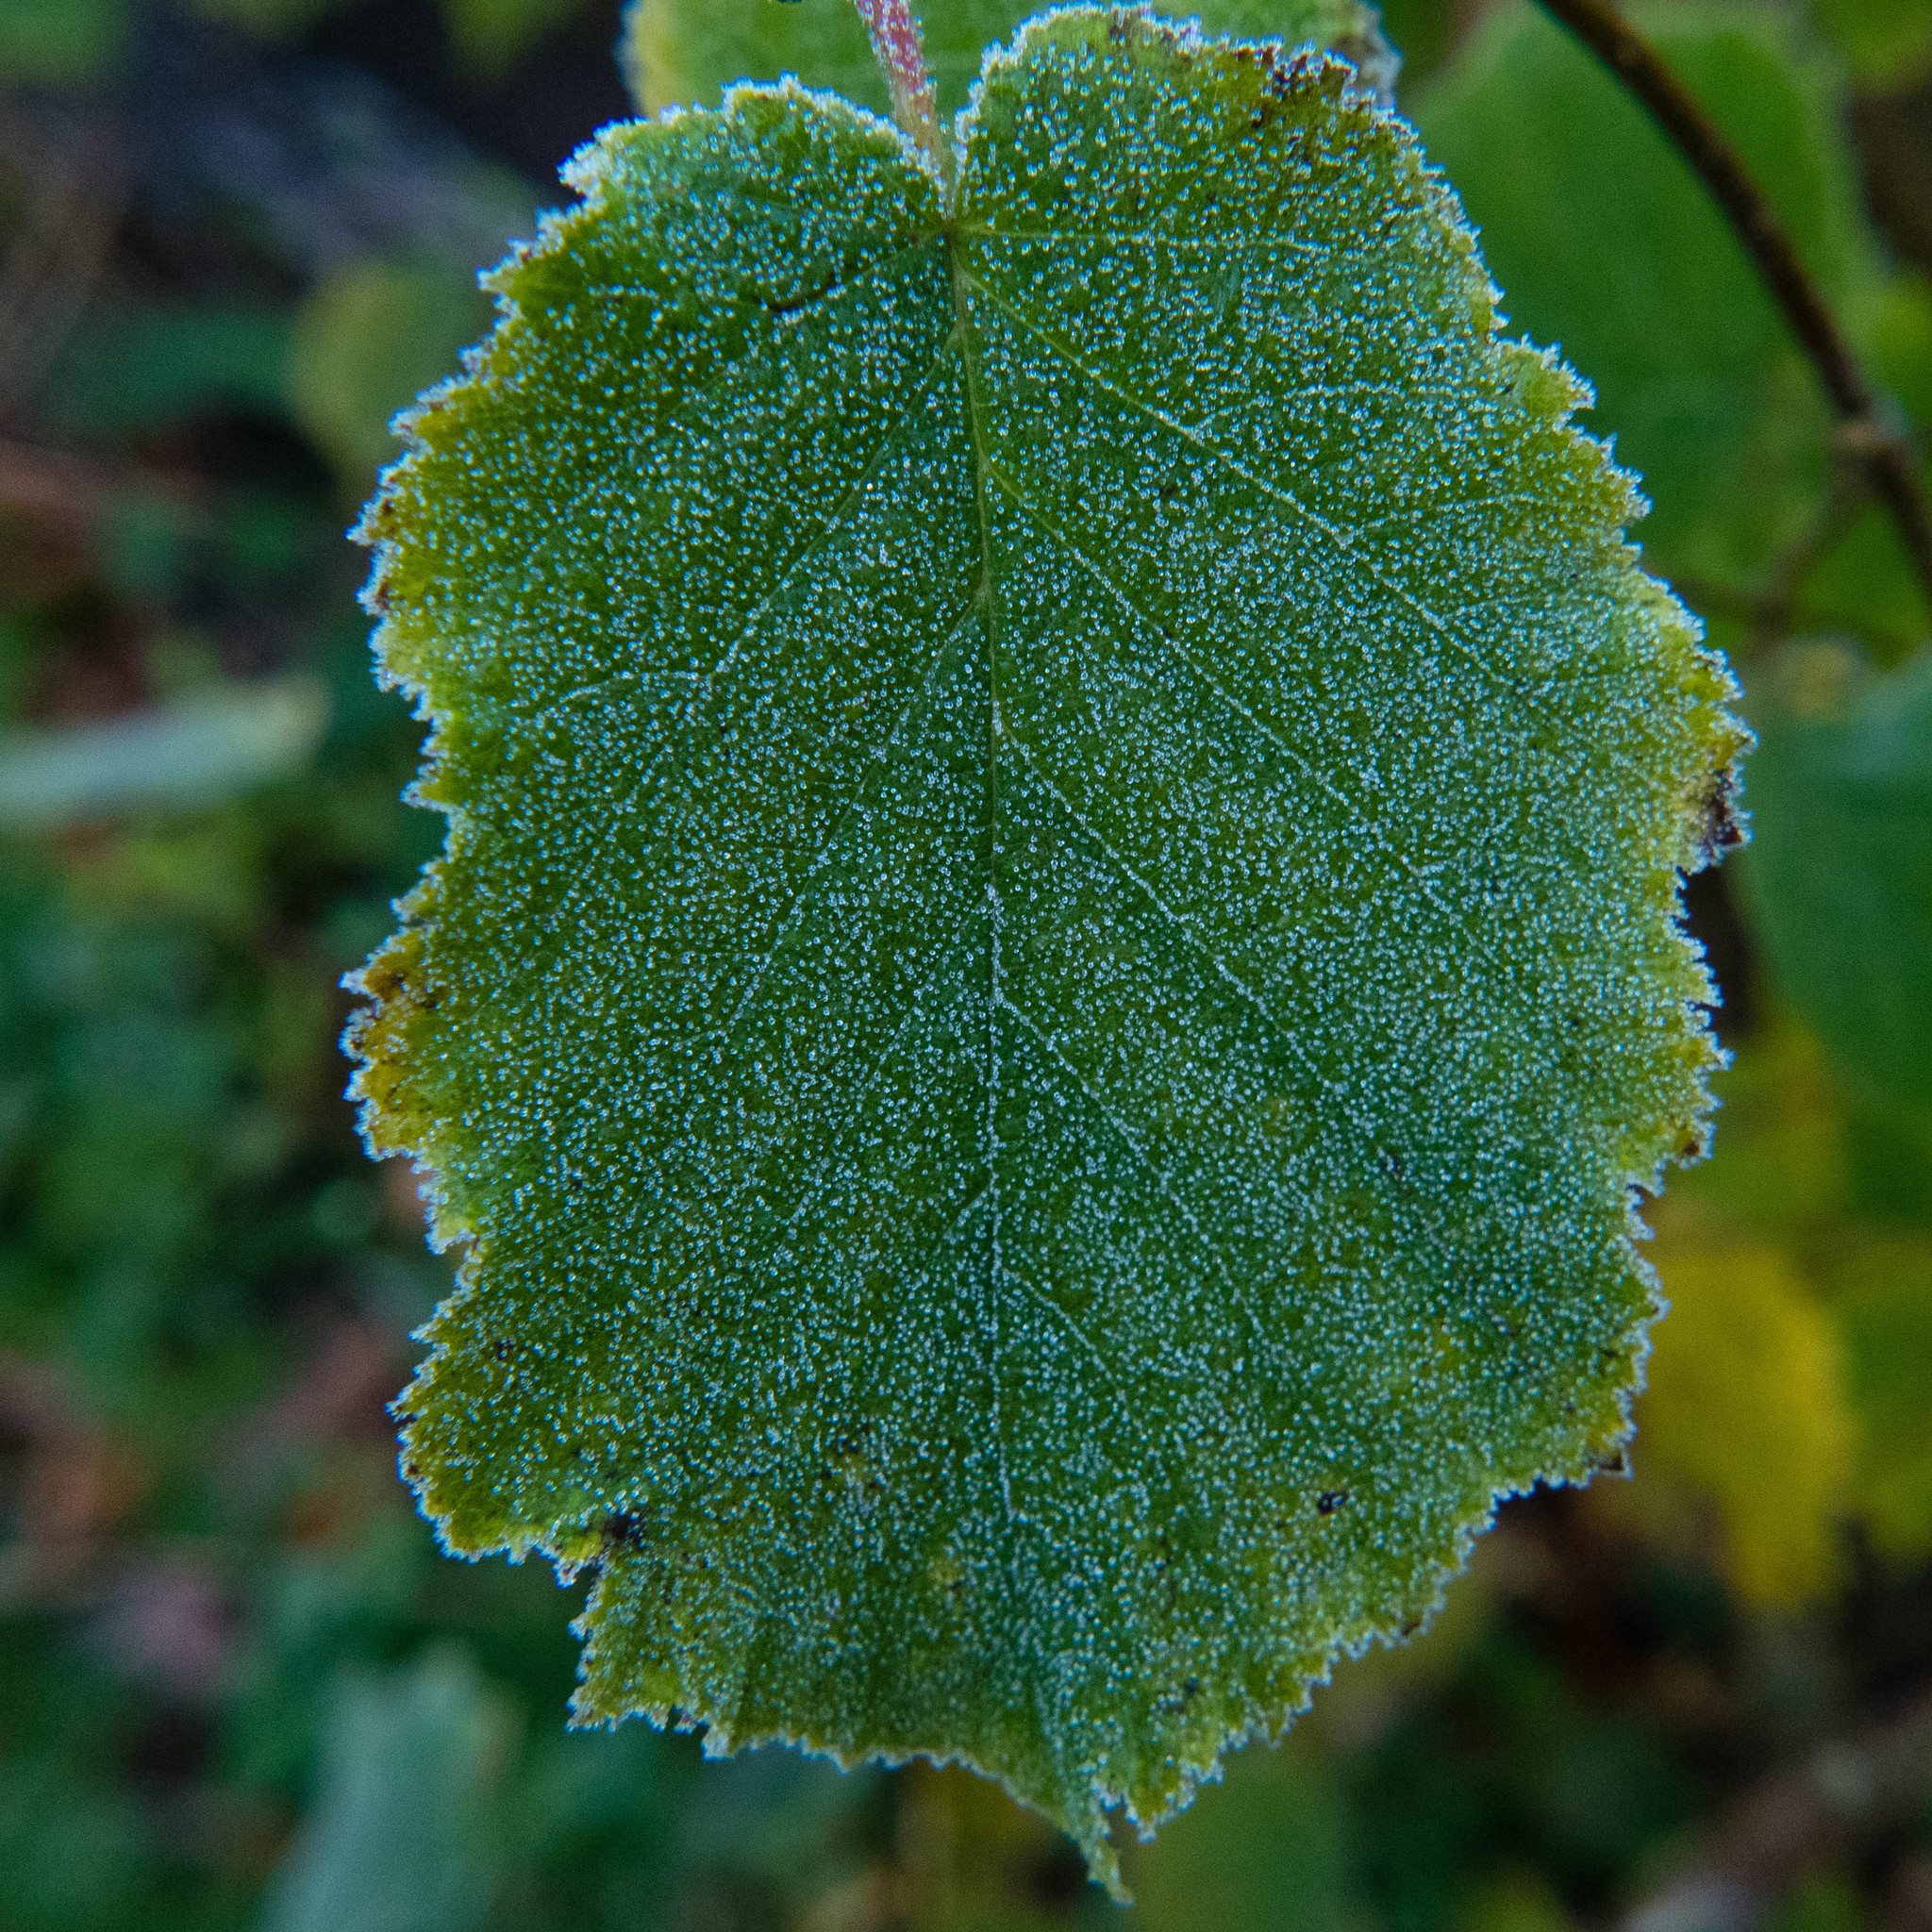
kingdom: Plantae
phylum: Tracheophyta
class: Magnoliopsida
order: Fagales
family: Betulaceae
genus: Corylus
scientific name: Corylus avellana
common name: European hazel
